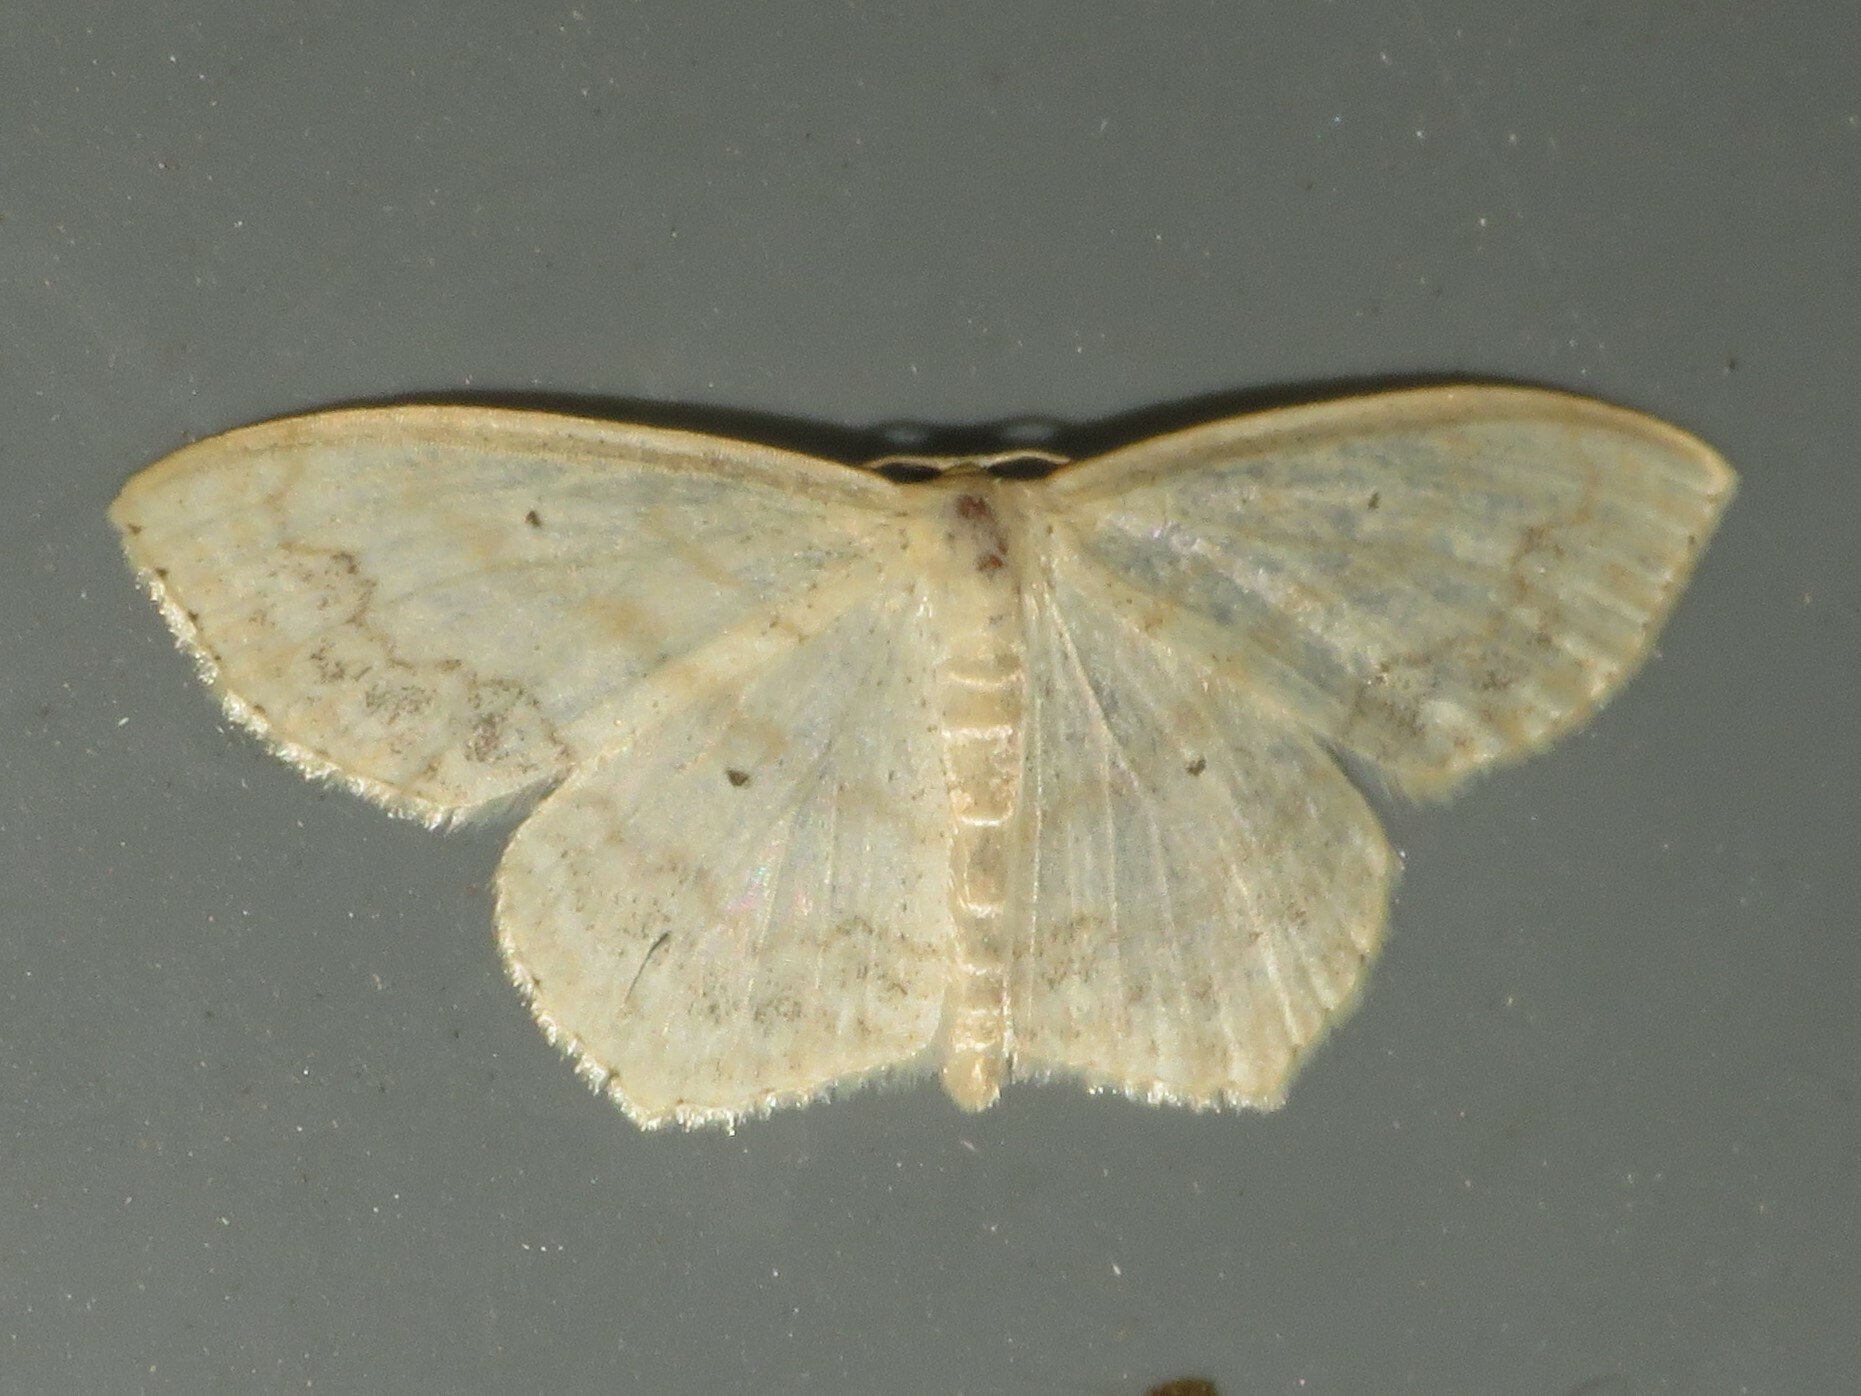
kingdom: Animalia
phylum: Arthropoda
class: Insecta
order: Lepidoptera
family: Geometridae
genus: Scopula
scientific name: Scopula limboundata
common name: Large lace border
